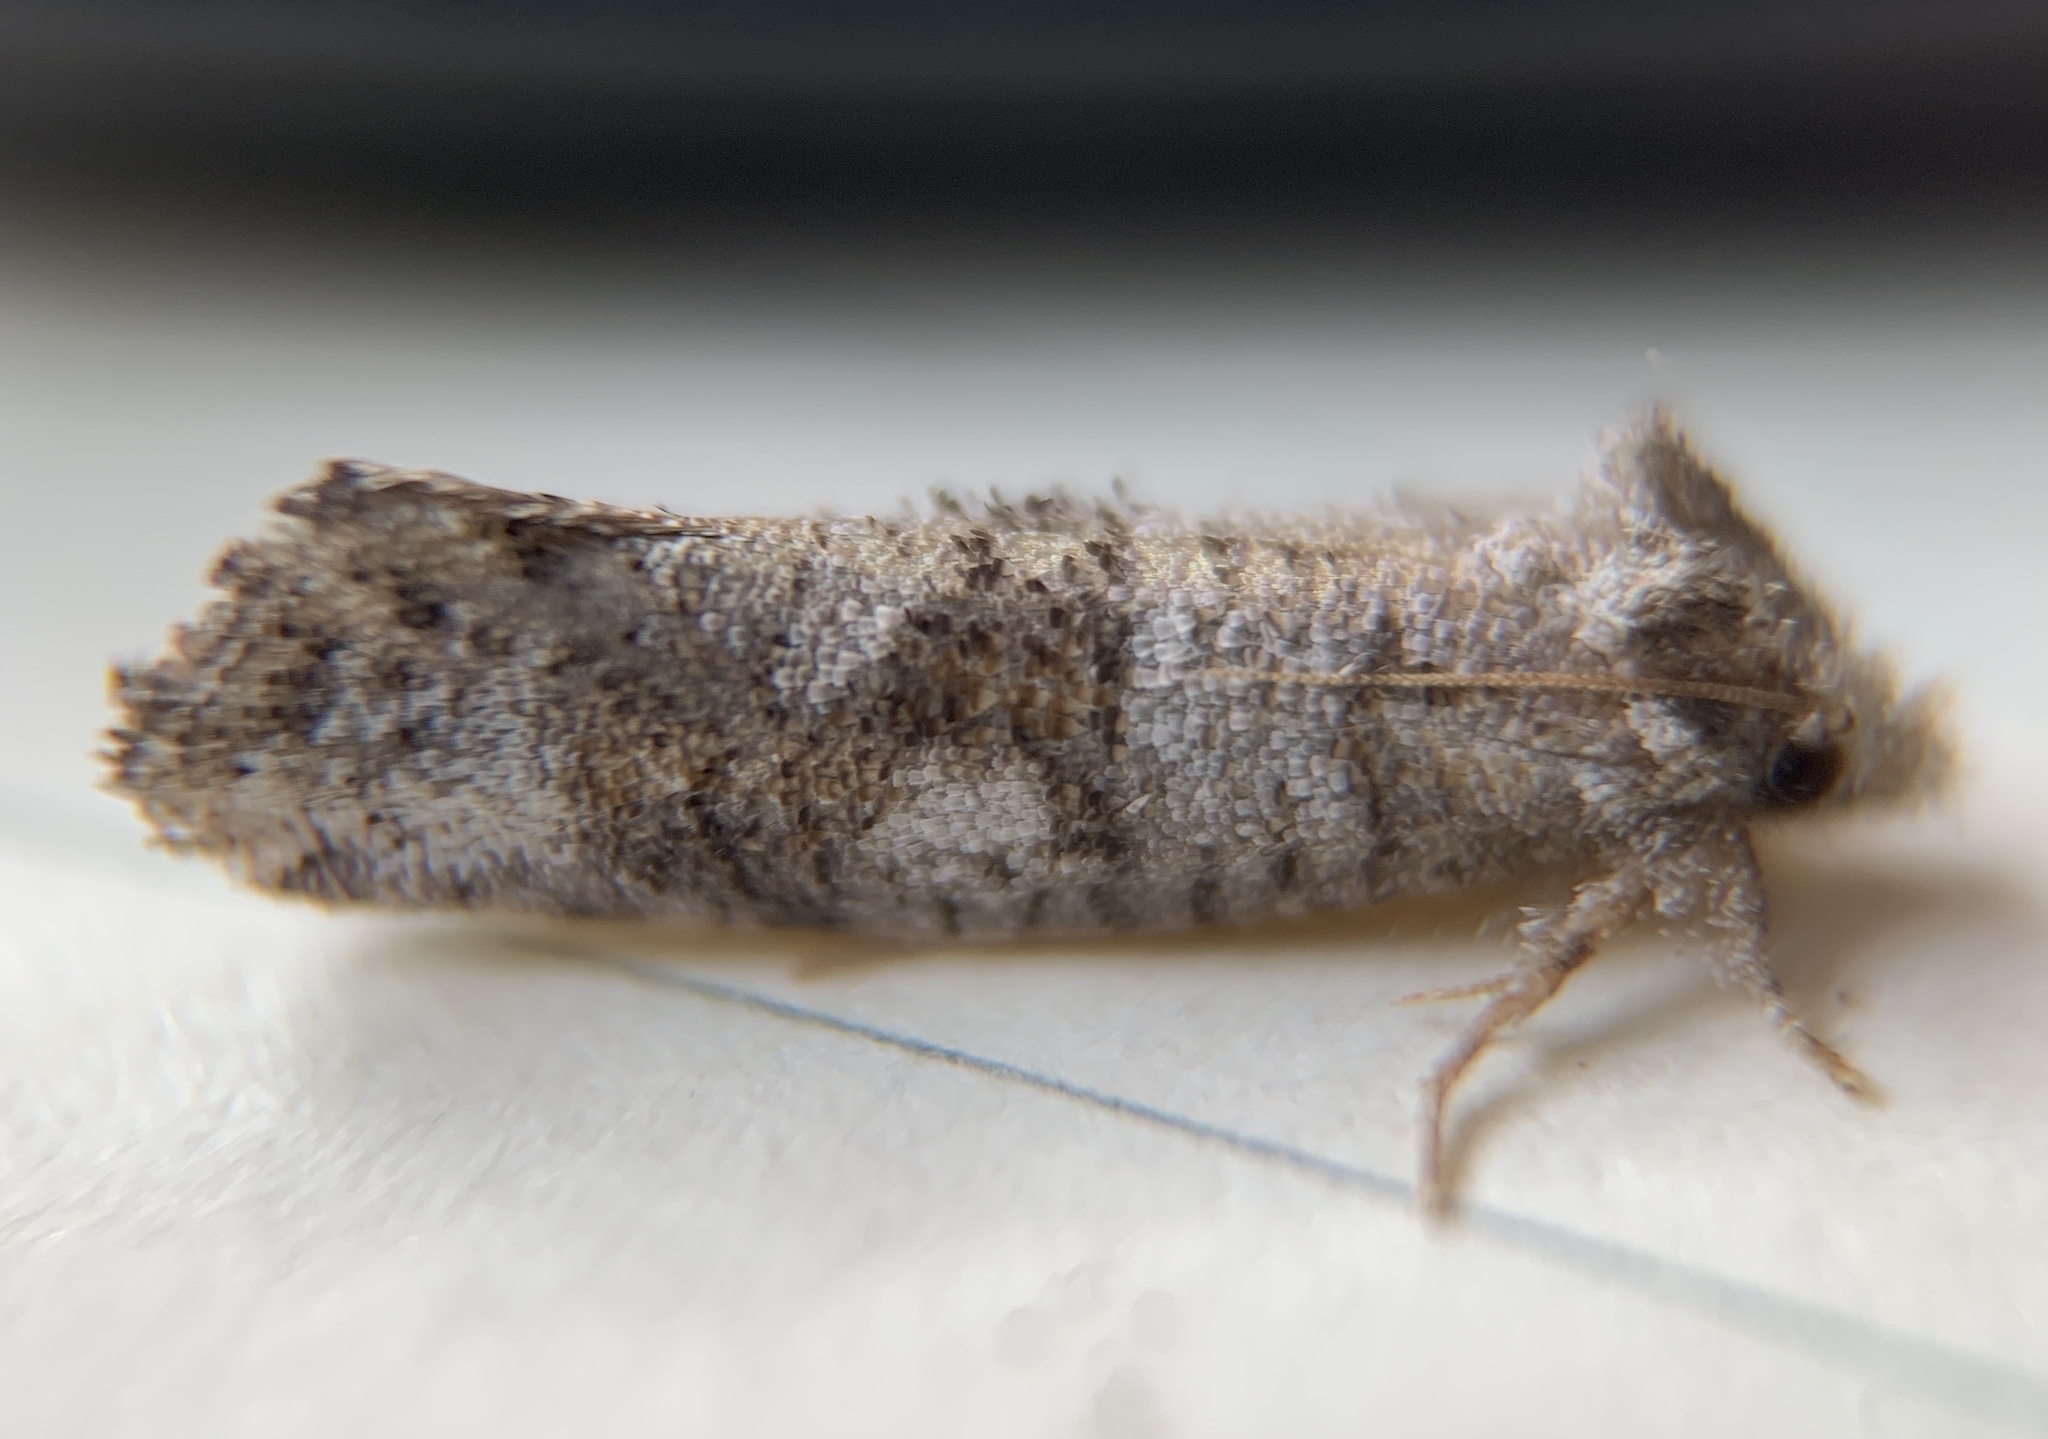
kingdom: Animalia
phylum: Arthropoda
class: Insecta
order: Lepidoptera
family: Tineidae
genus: Acrolophus
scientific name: Acrolophus forbesi
